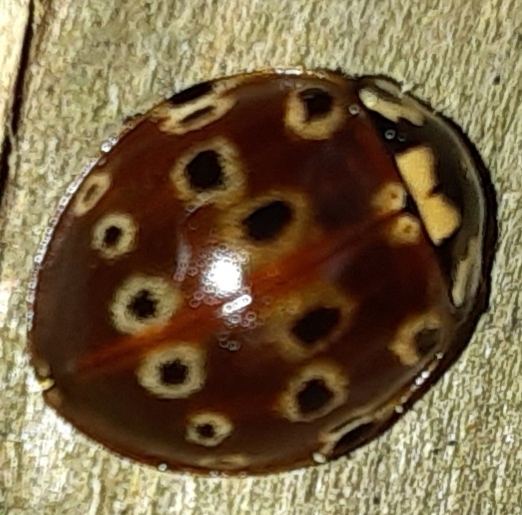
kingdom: Animalia
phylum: Arthropoda
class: Insecta
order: Coleoptera
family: Coccinellidae
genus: Anatis
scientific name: Anatis mali
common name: Eye-spotted lady beetle
